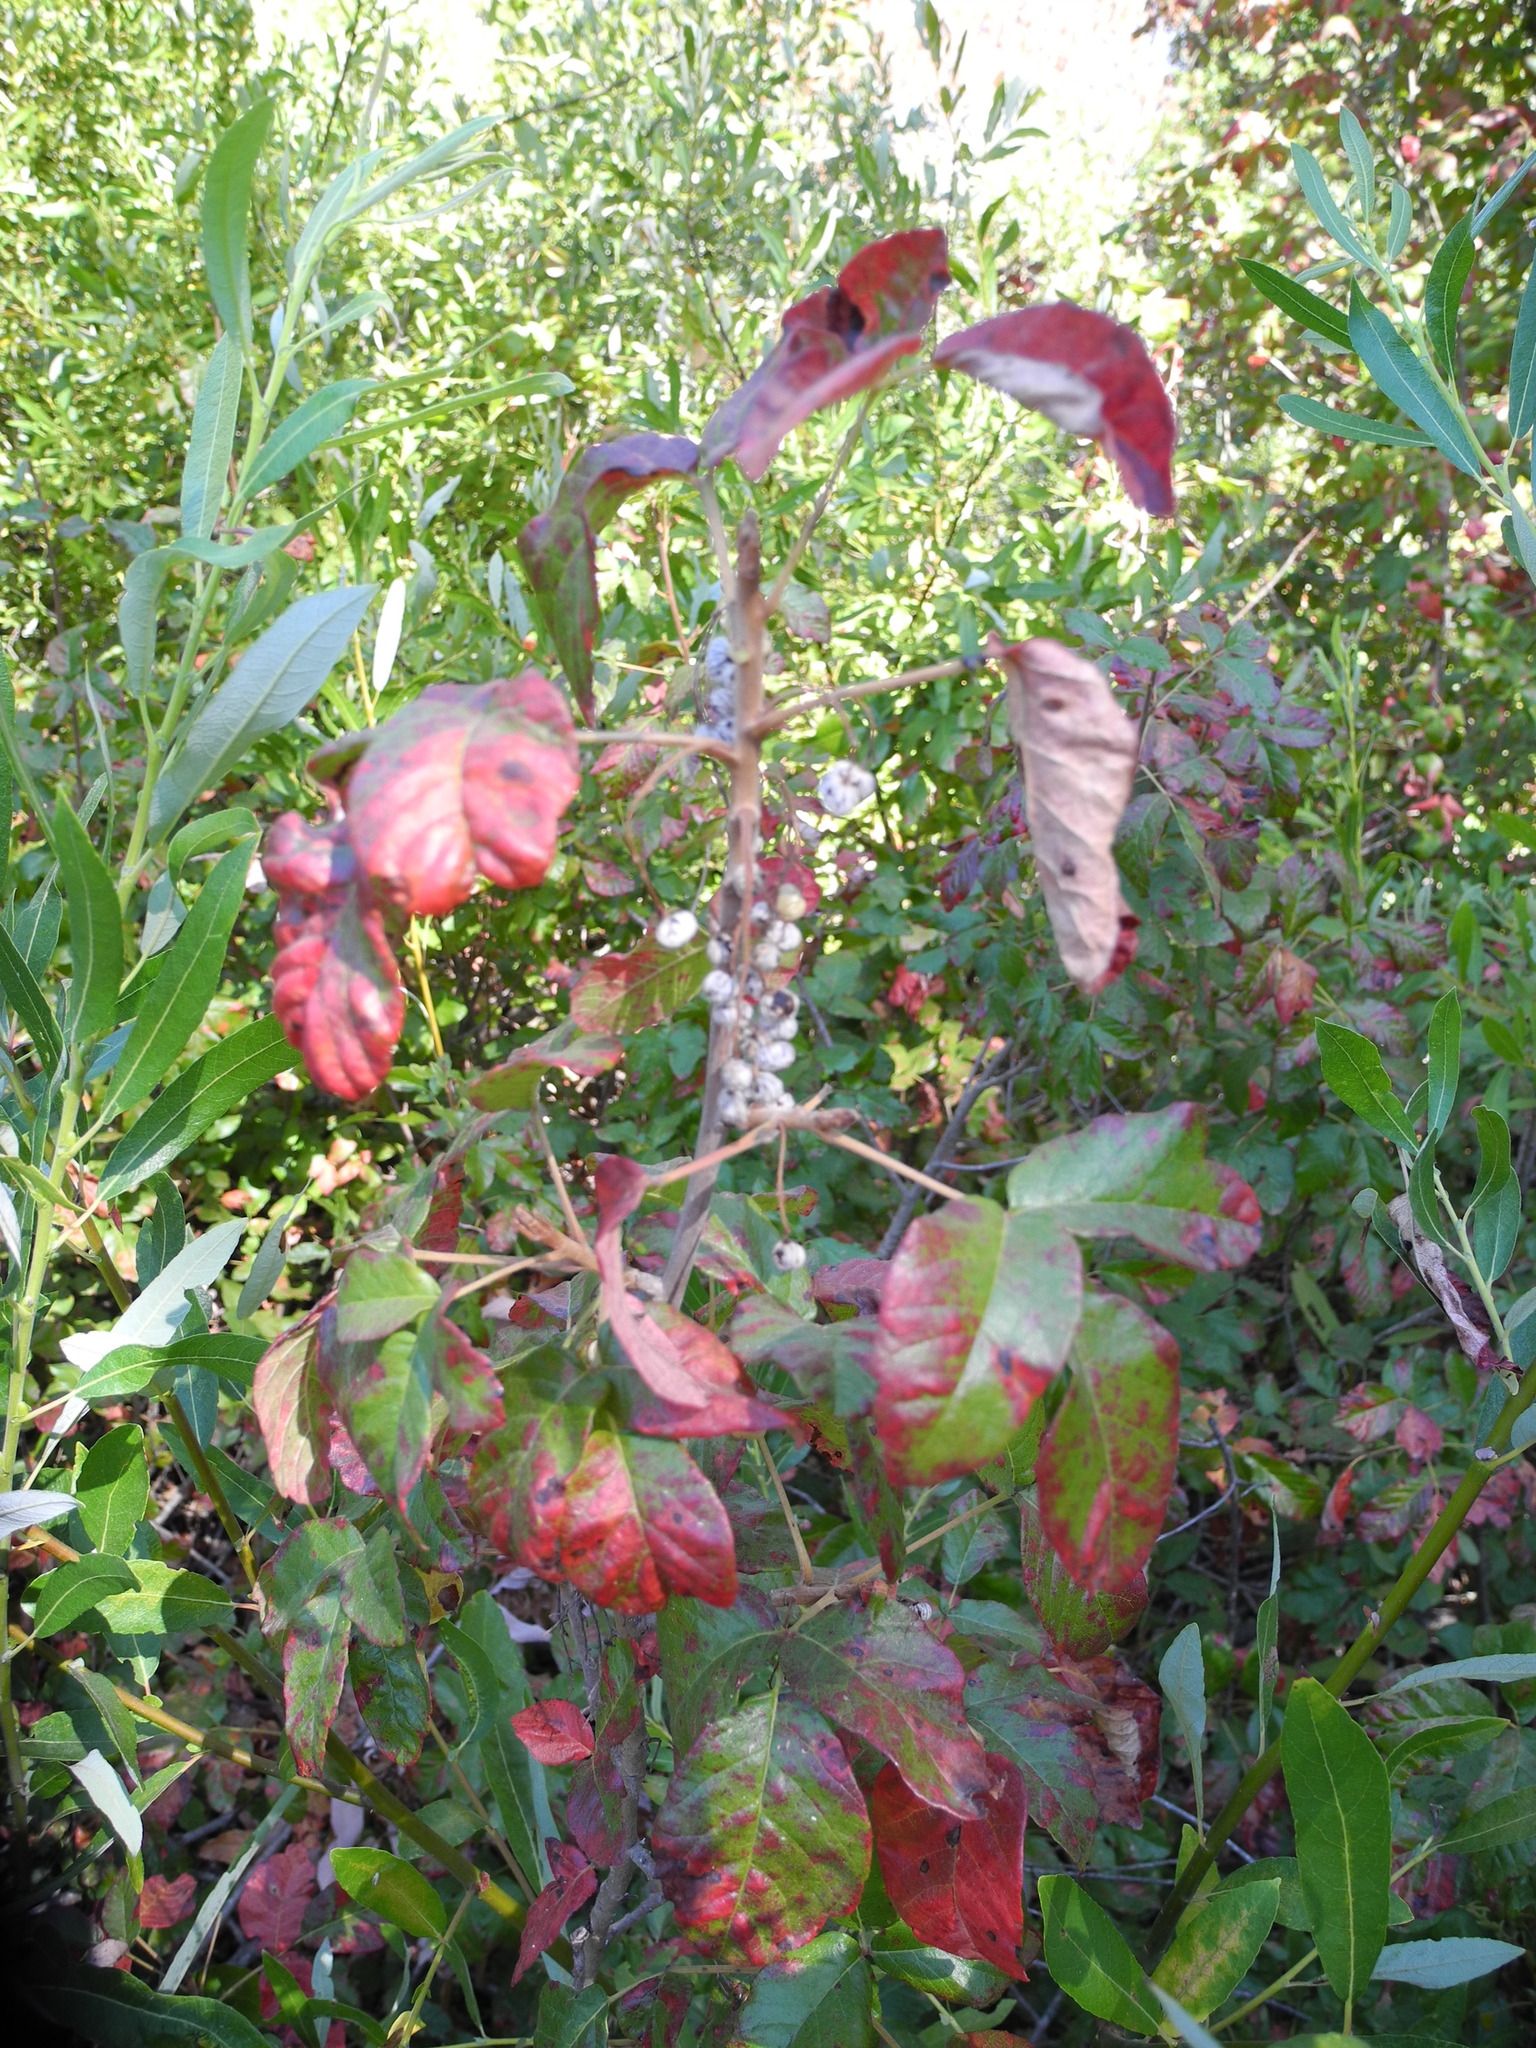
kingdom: Plantae
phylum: Tracheophyta
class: Magnoliopsida
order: Sapindales
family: Anacardiaceae
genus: Toxicodendron
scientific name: Toxicodendron diversilobum
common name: Pacific poison-oak
